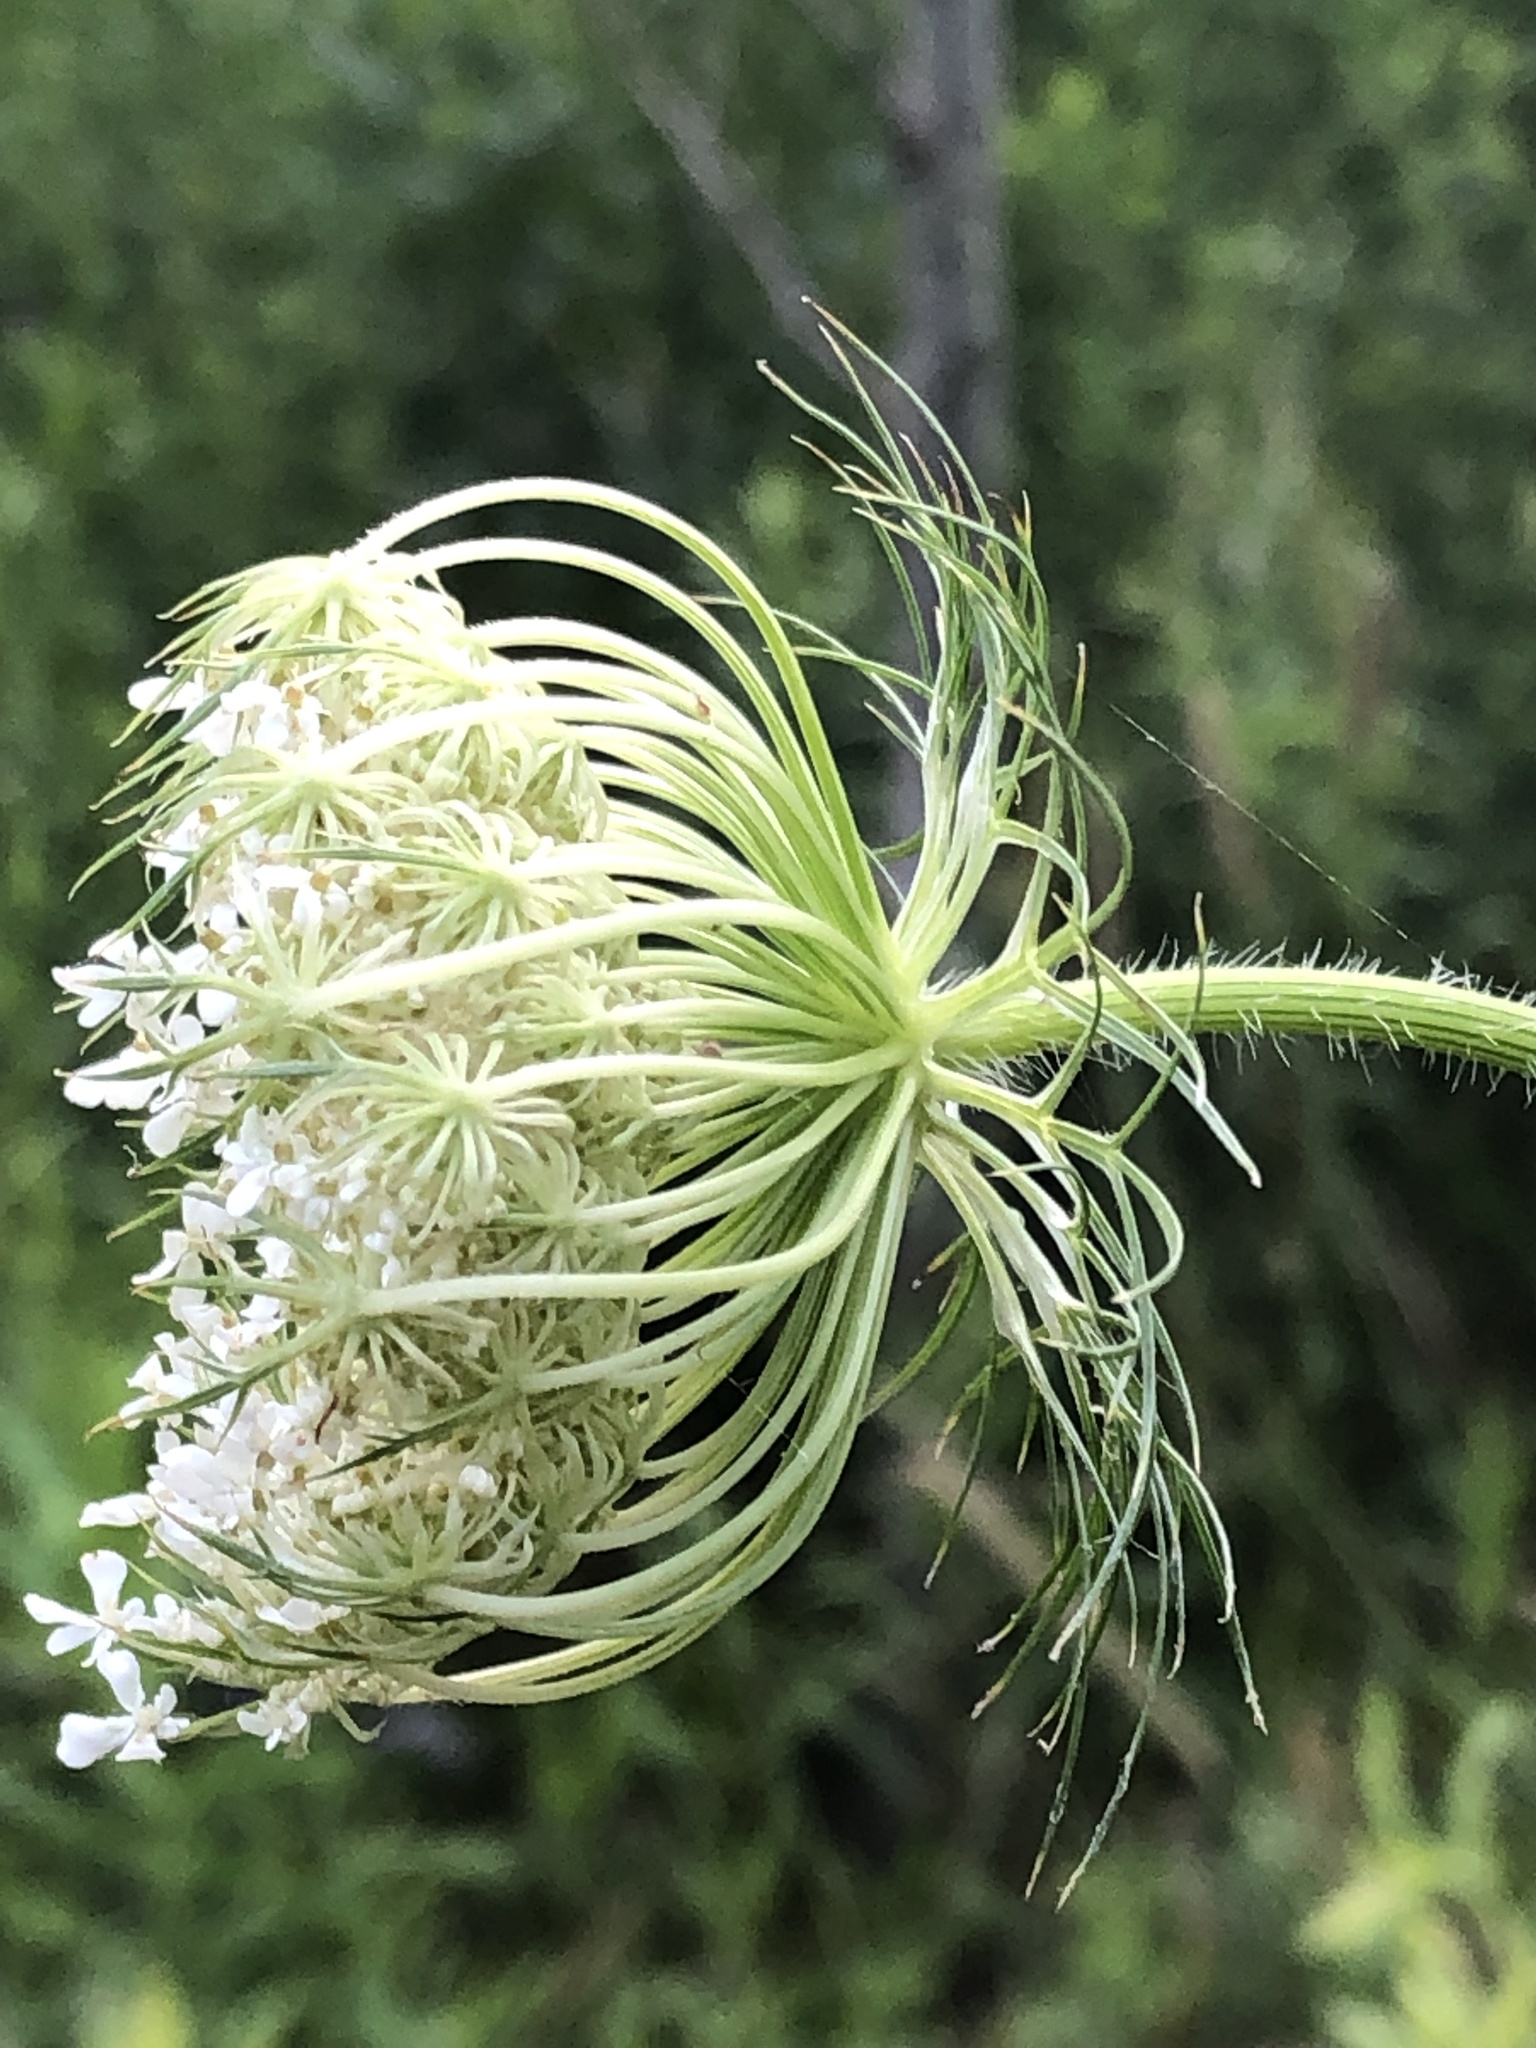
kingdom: Plantae
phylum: Tracheophyta
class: Magnoliopsida
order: Apiales
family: Apiaceae
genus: Daucus
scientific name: Daucus carota
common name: Wild carrot
